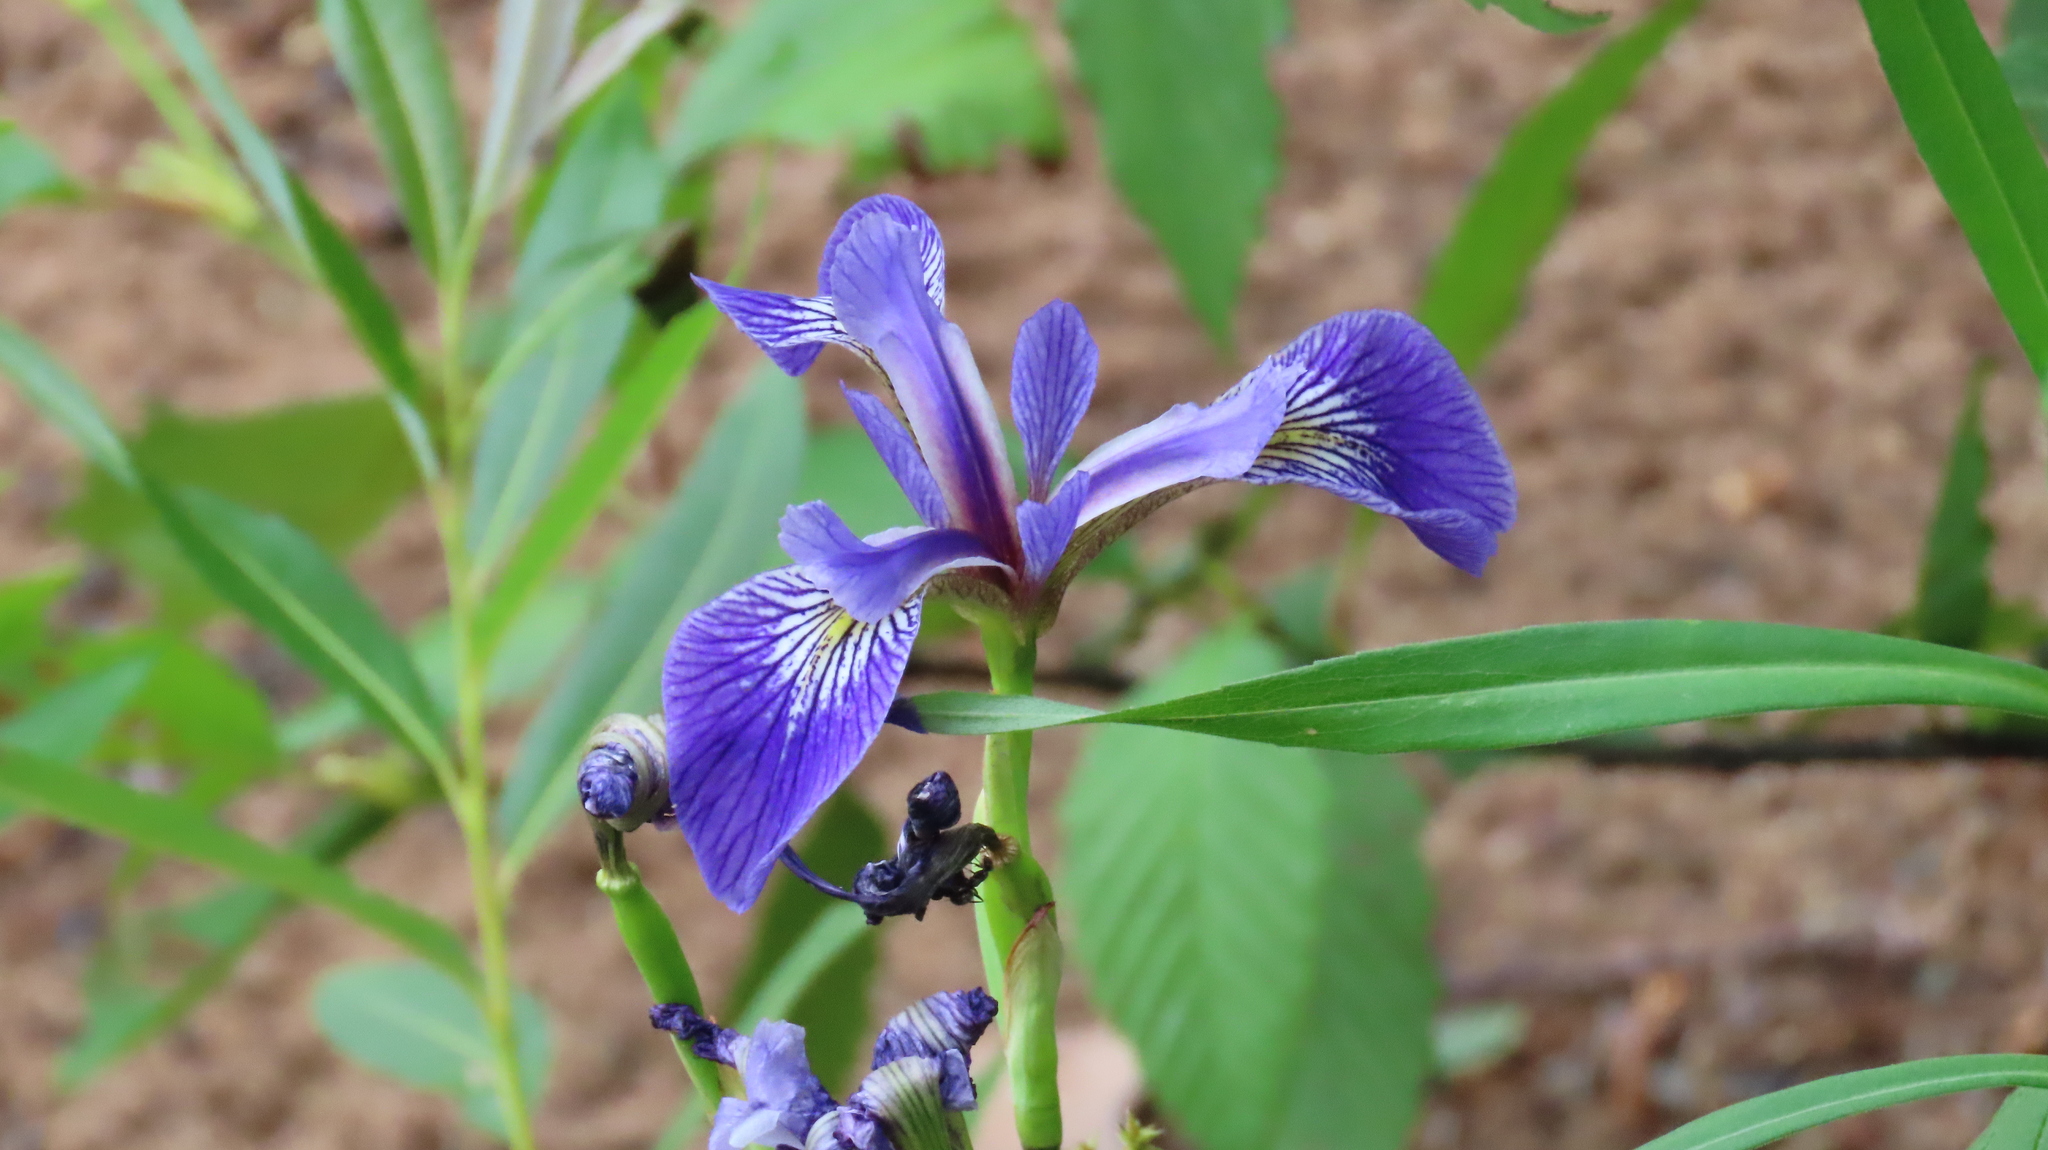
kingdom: Plantae
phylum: Tracheophyta
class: Liliopsida
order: Asparagales
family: Iridaceae
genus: Iris
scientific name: Iris versicolor
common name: Purple iris
